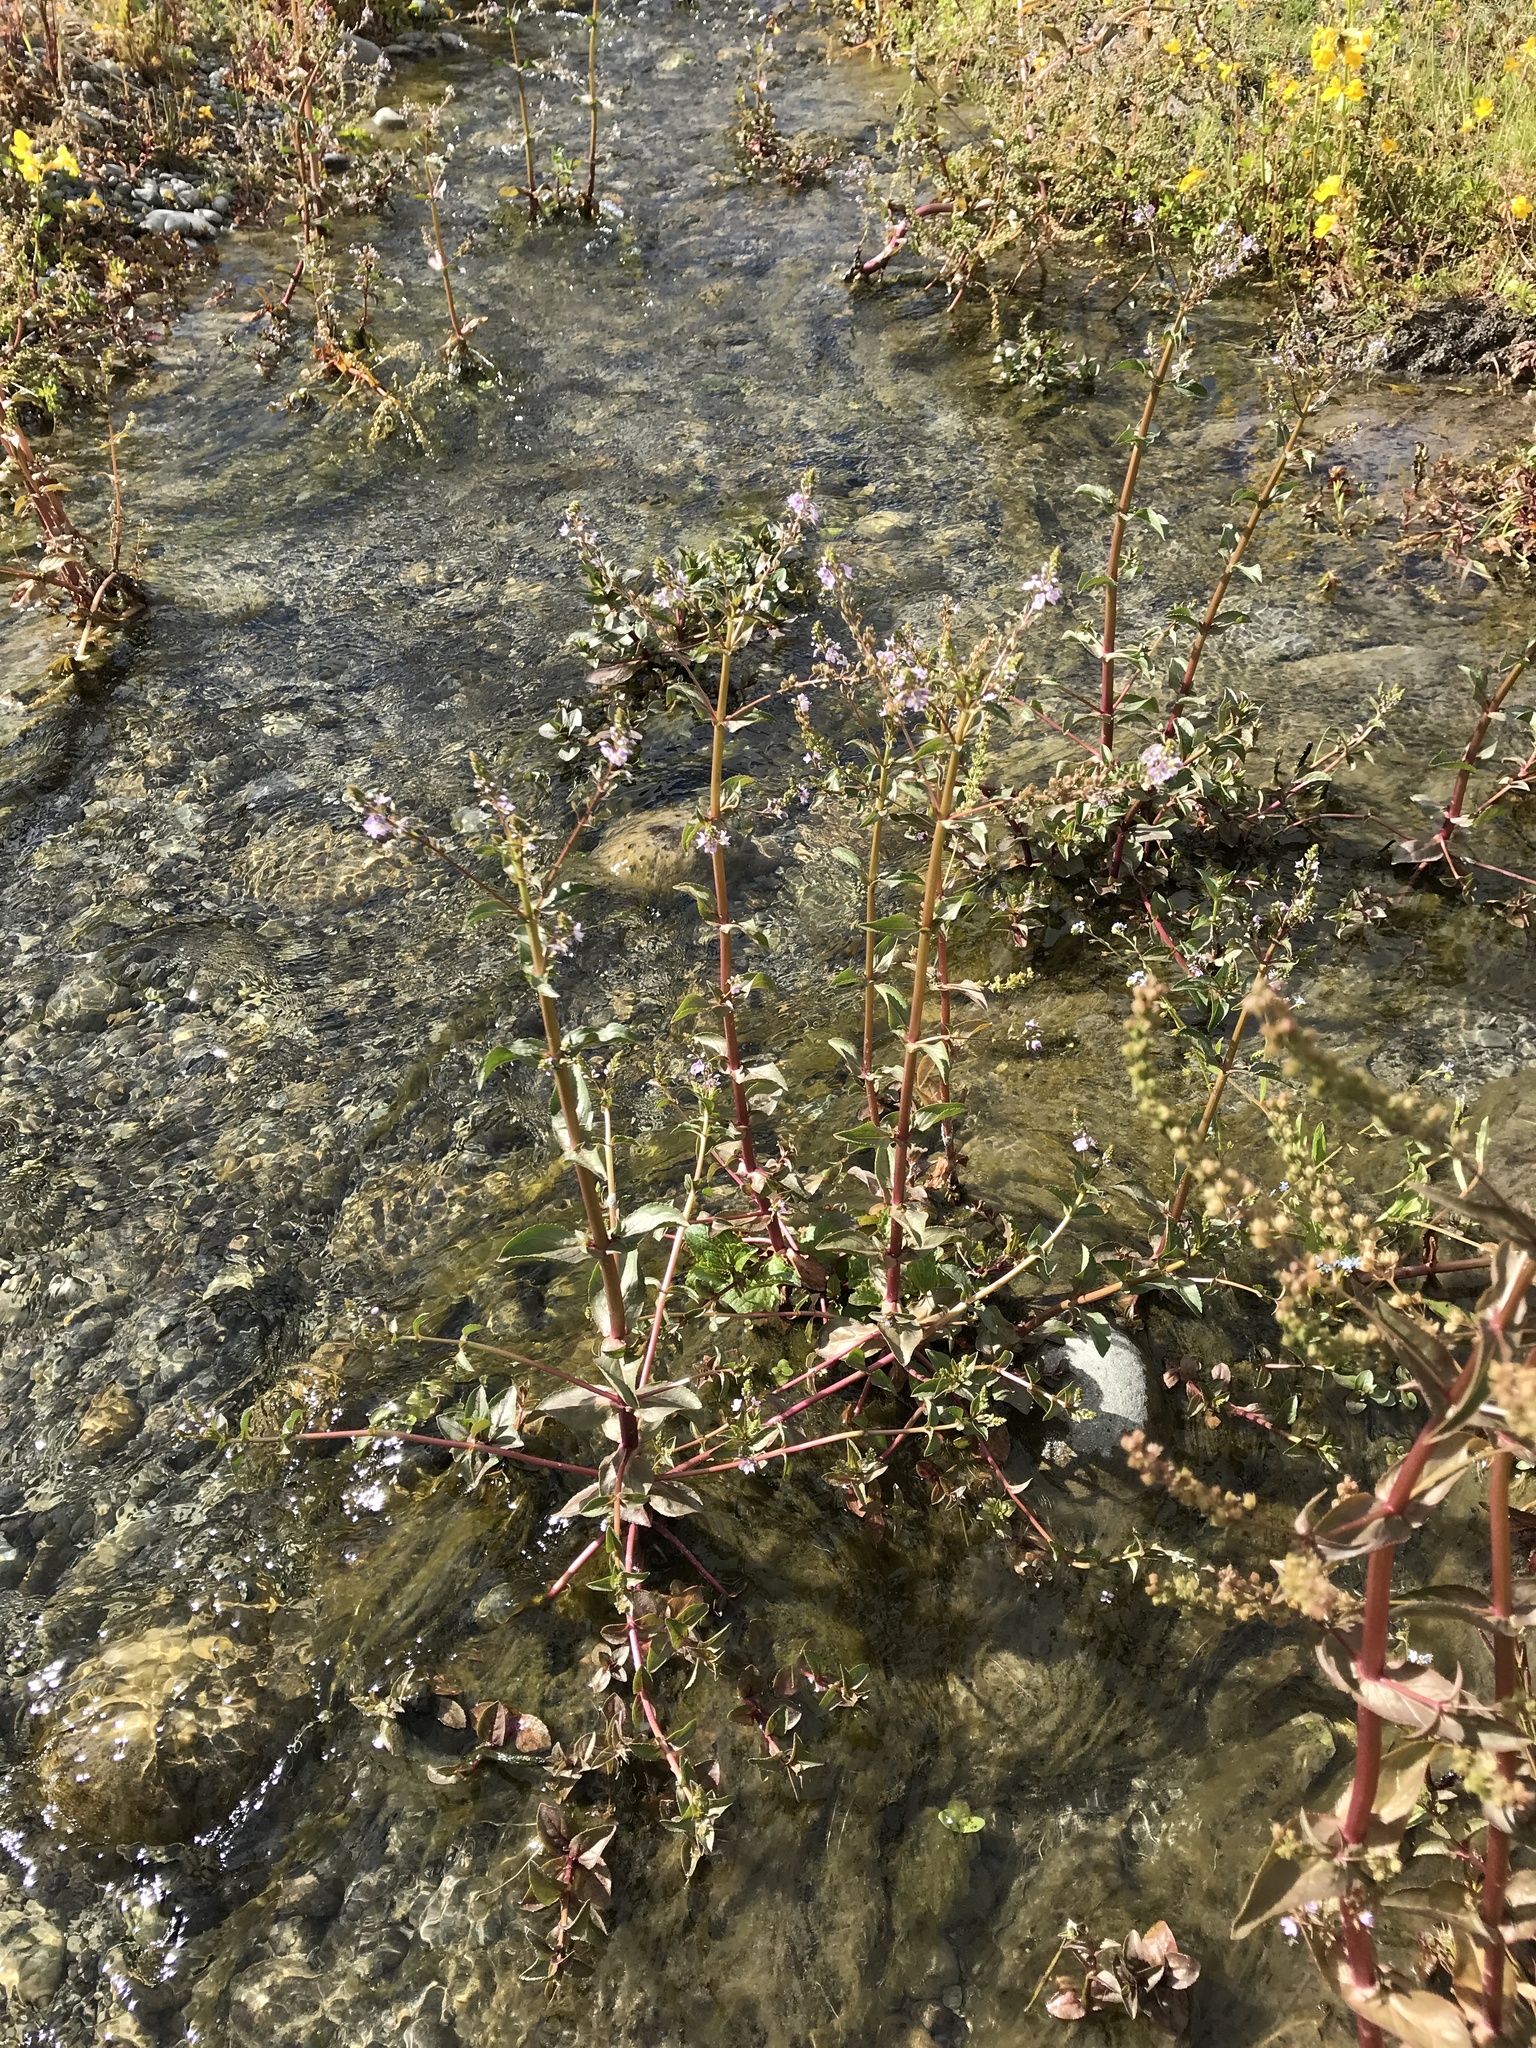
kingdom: Plantae
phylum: Tracheophyta
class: Magnoliopsida
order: Lamiales
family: Plantaginaceae
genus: Veronica
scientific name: Veronica anagallis-aquatica
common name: Water speedwell
